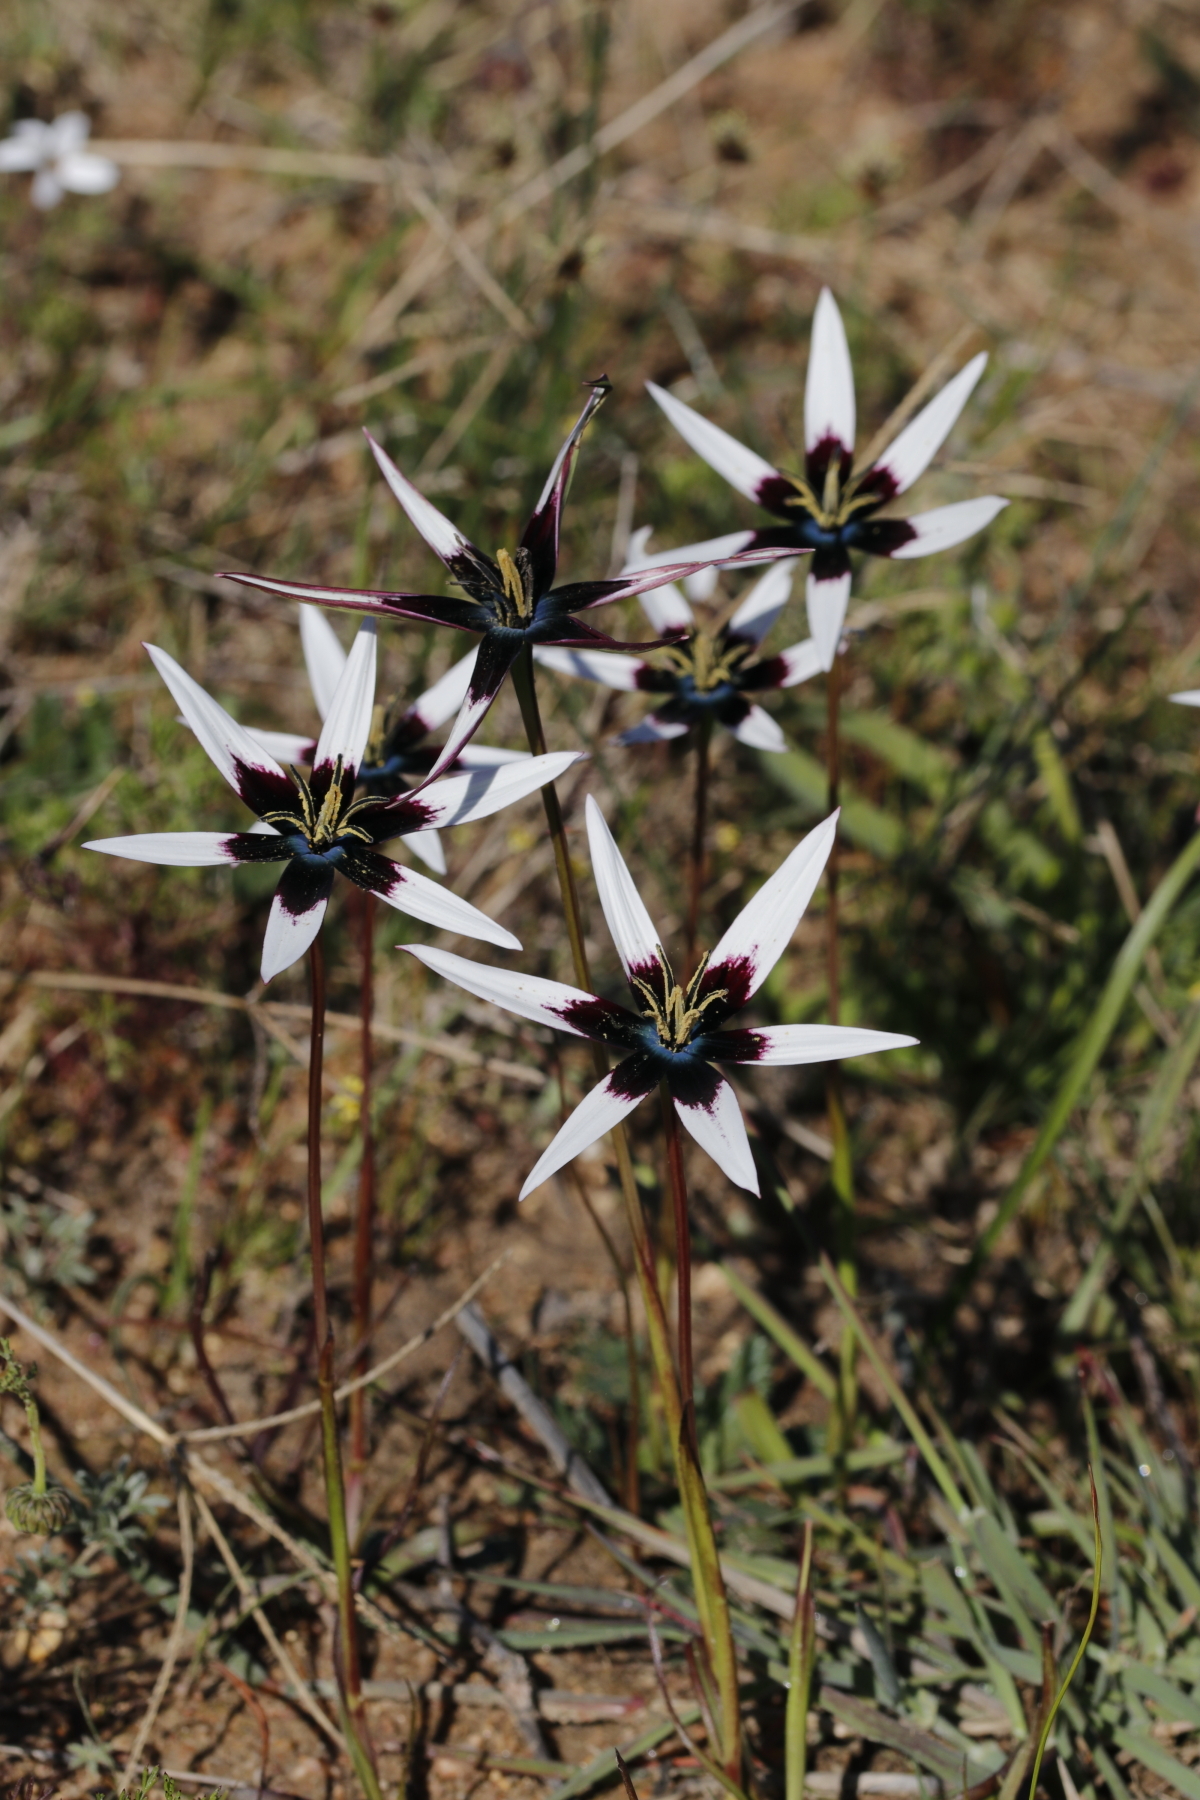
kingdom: Plantae
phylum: Tracheophyta
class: Liliopsida
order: Asparagales
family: Hypoxidaceae
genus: Pauridia
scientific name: Pauridia capensis
